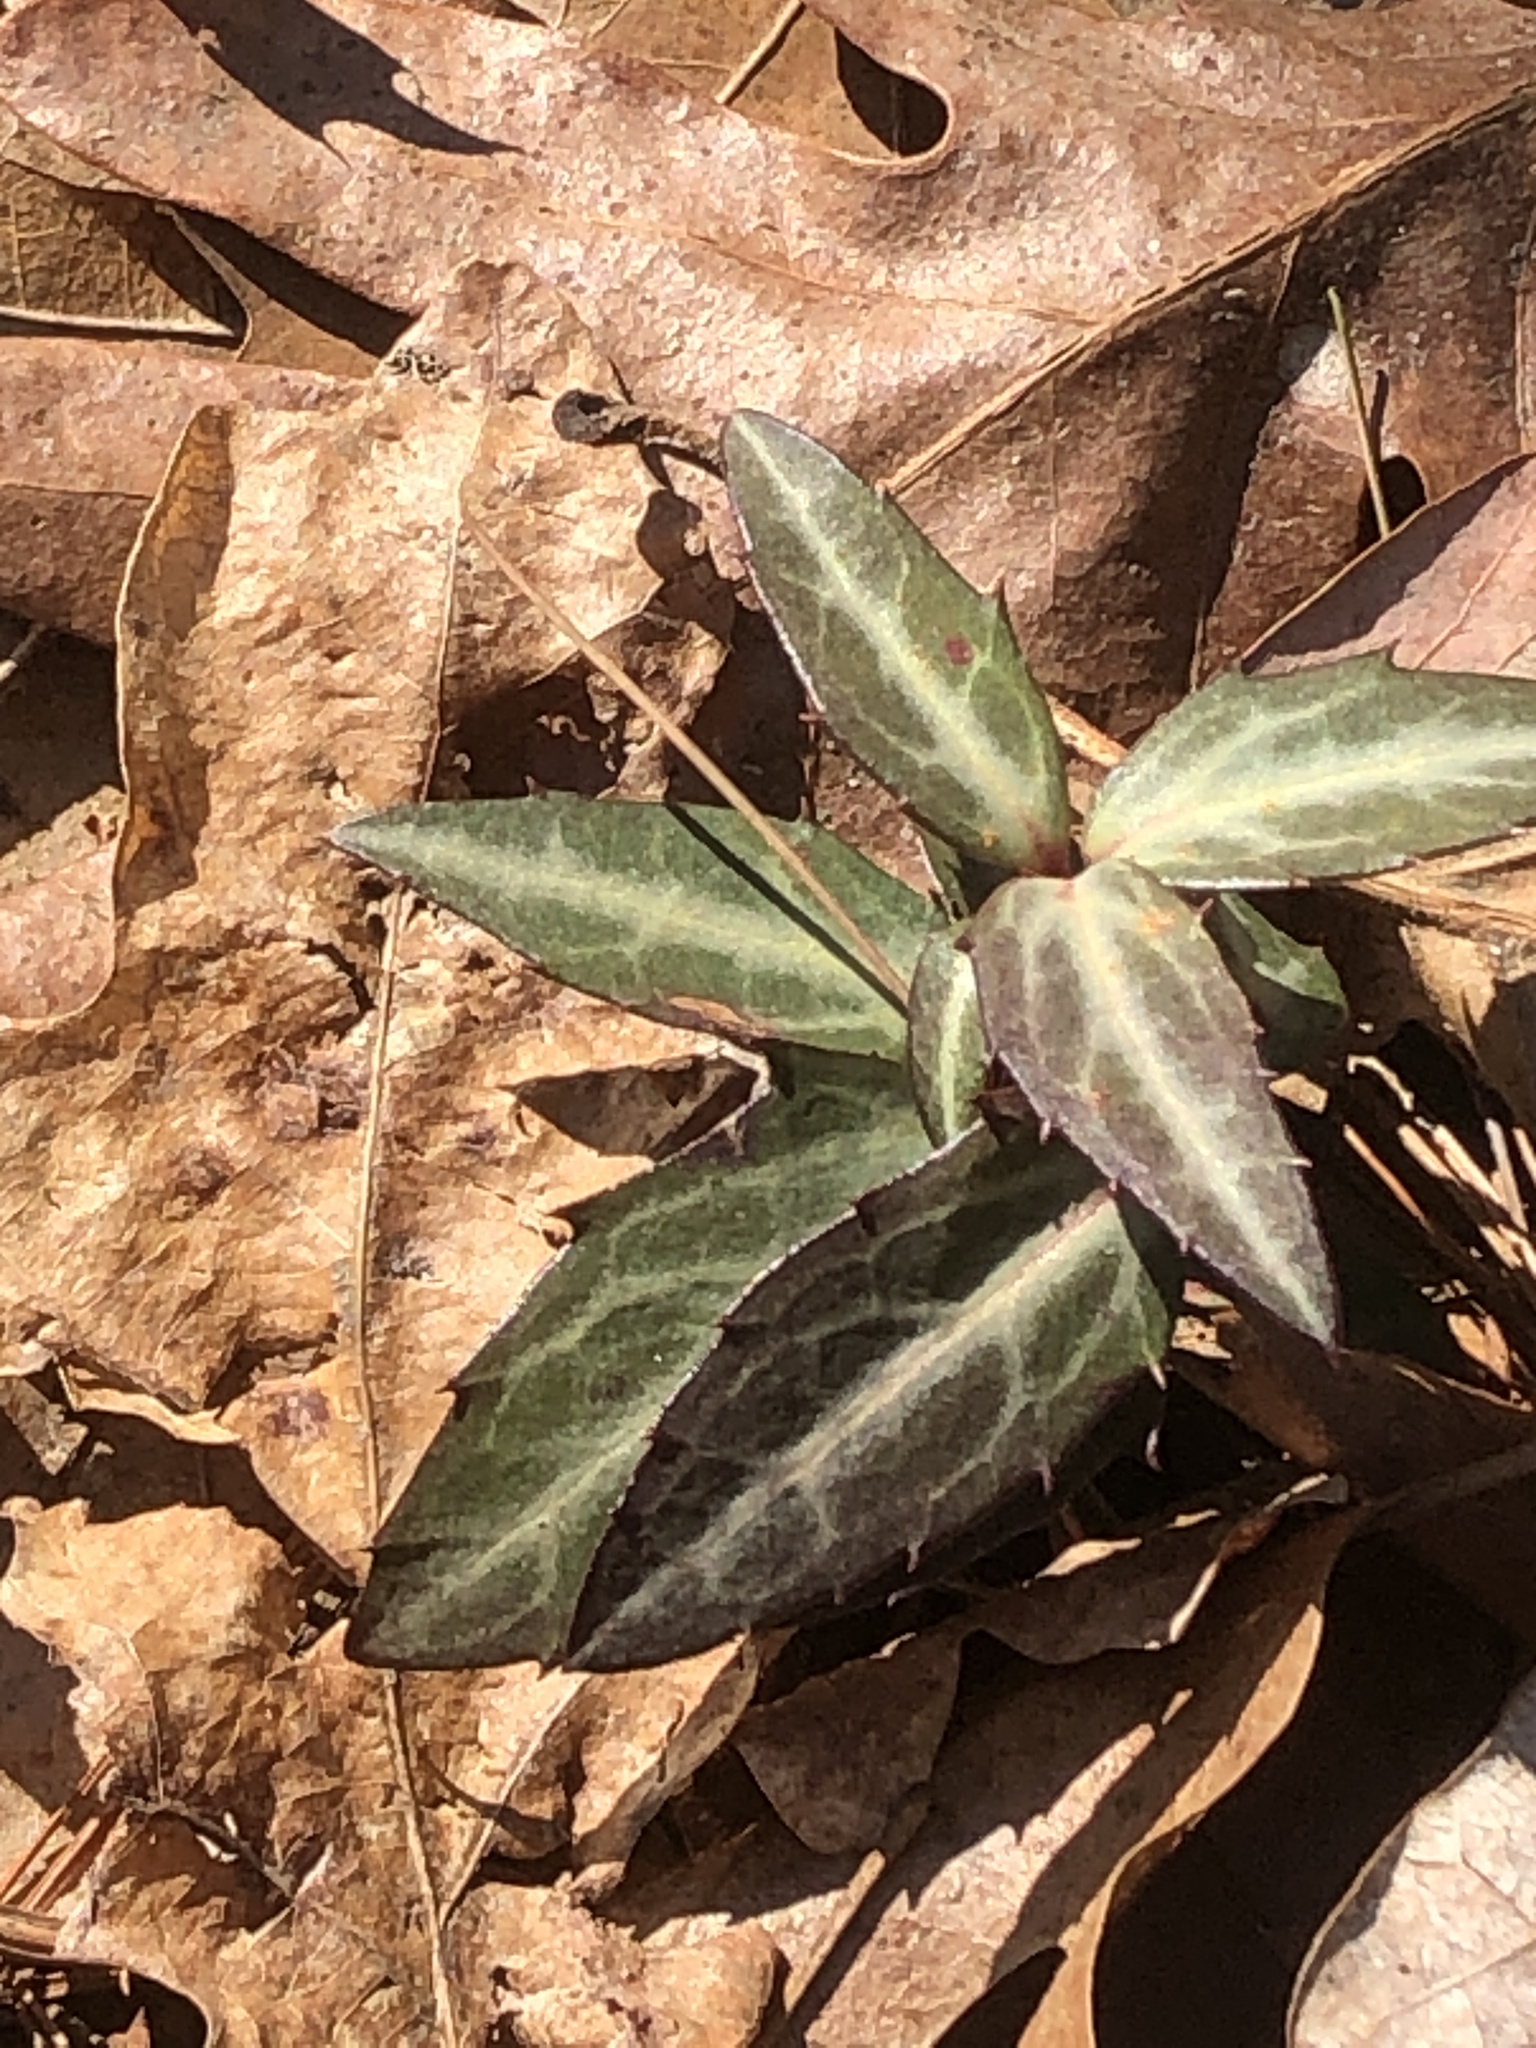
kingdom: Plantae
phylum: Tracheophyta
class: Magnoliopsida
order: Ericales
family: Ericaceae
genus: Chimaphila
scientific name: Chimaphila maculata
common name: Spotted pipsissewa
